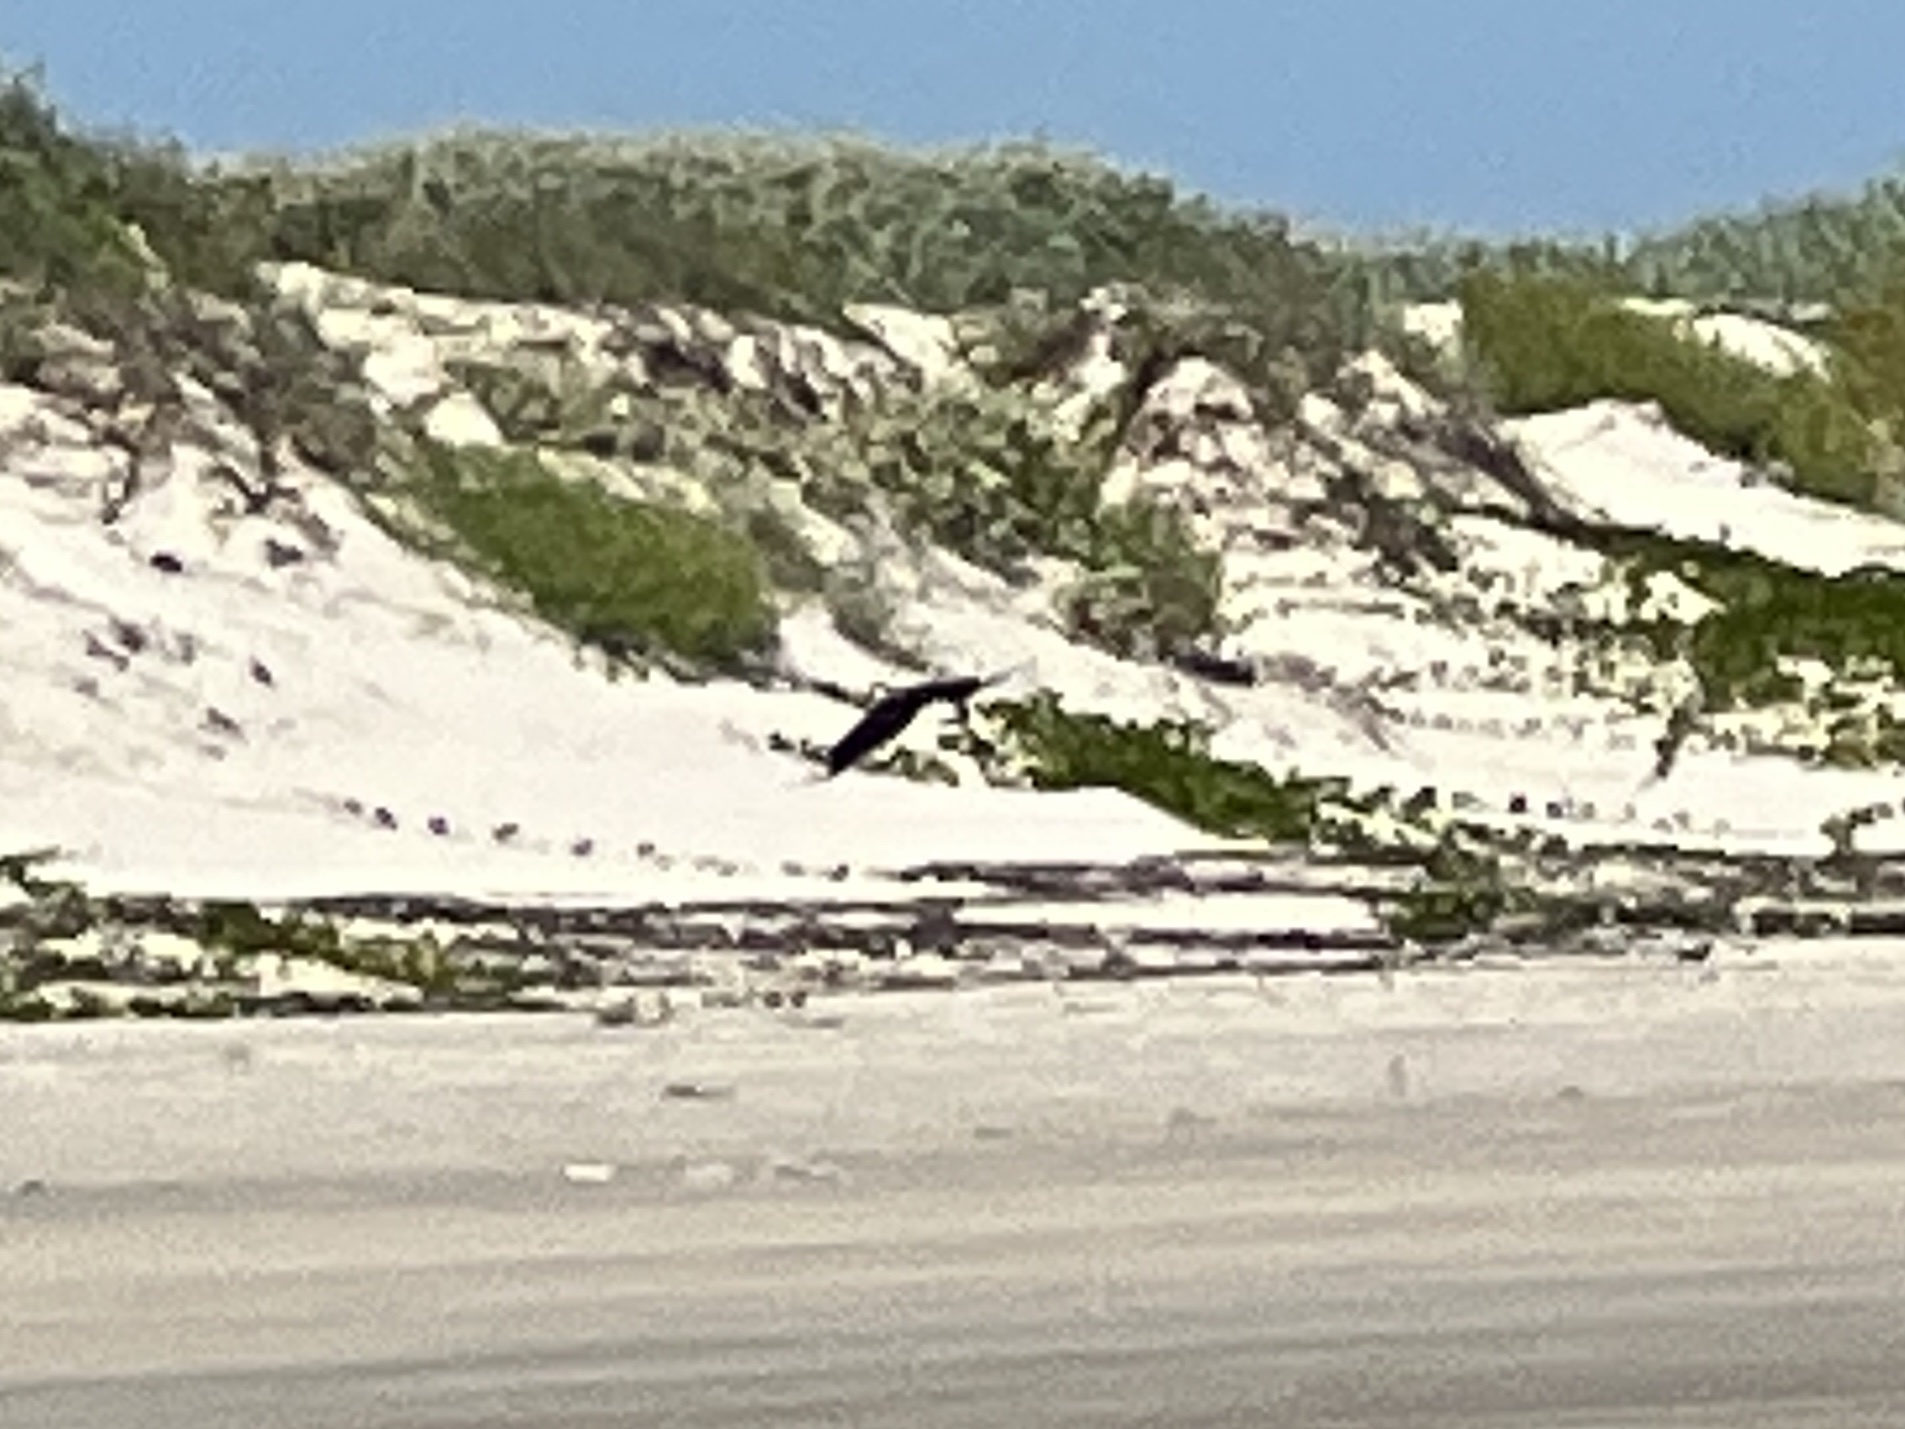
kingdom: Animalia
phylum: Chordata
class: Aves
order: Falconiformes
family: Falconidae
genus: Caracara
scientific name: Caracara plancus
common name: Southern caracara
